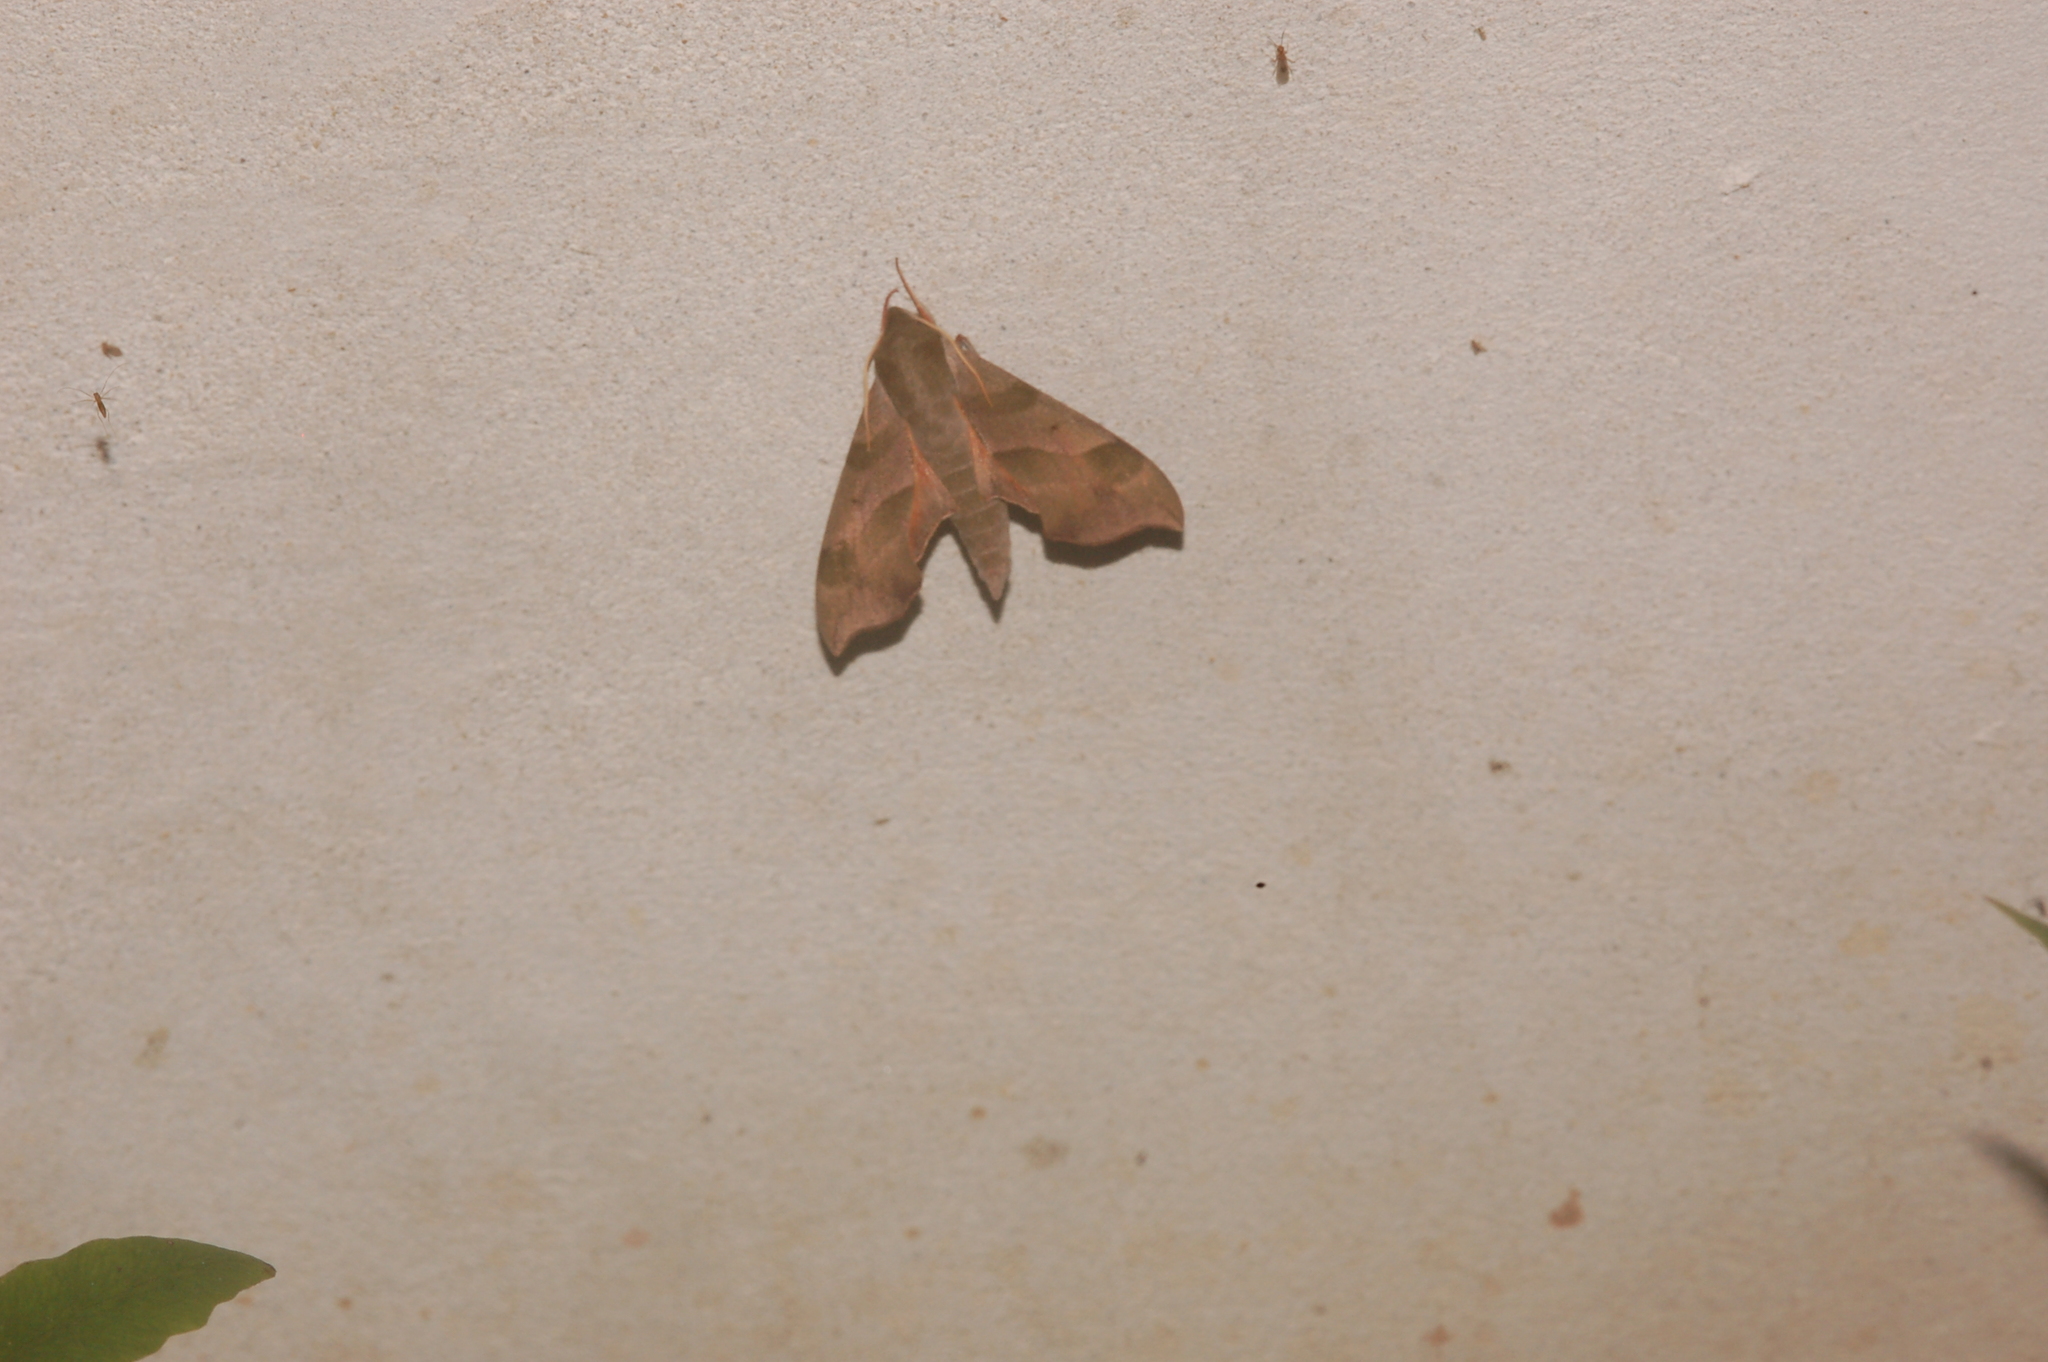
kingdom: Animalia
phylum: Arthropoda
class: Insecta
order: Lepidoptera
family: Sphingidae
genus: Darapsa
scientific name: Darapsa myron
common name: Hog sphinx
